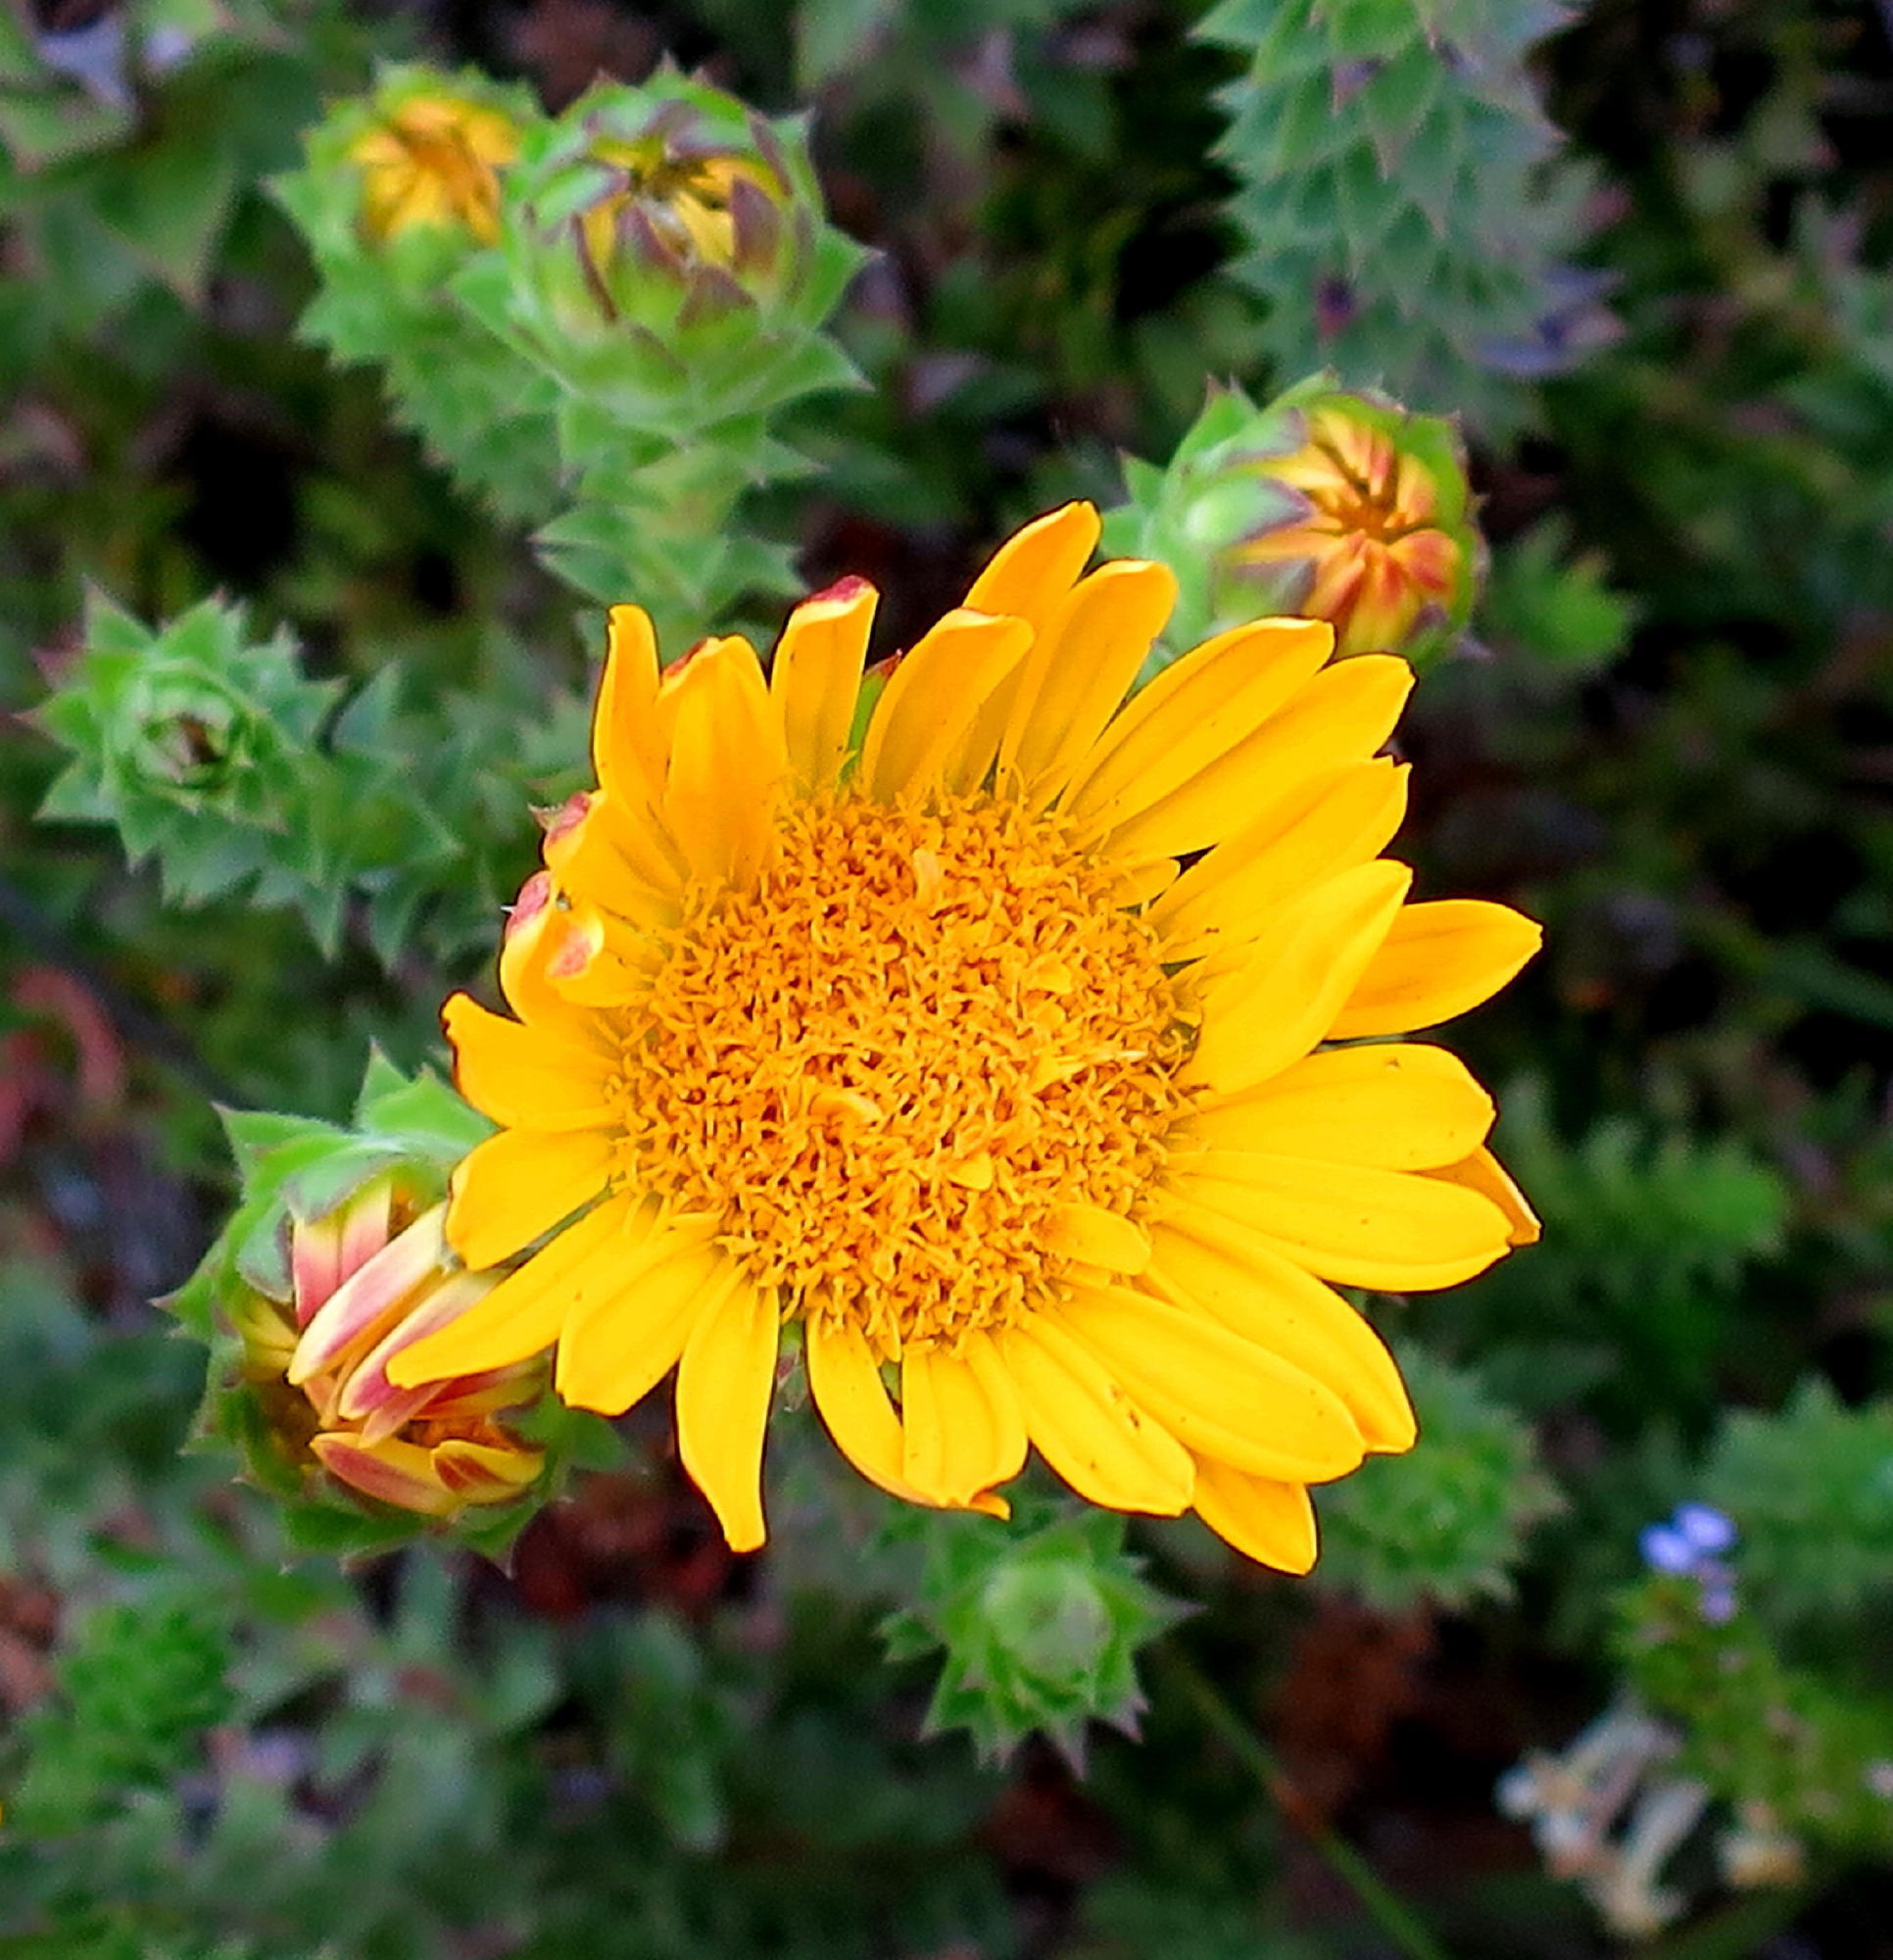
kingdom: Plantae
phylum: Tracheophyta
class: Magnoliopsida
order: Asterales
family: Asteraceae
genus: Oedera
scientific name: Oedera imbricata
